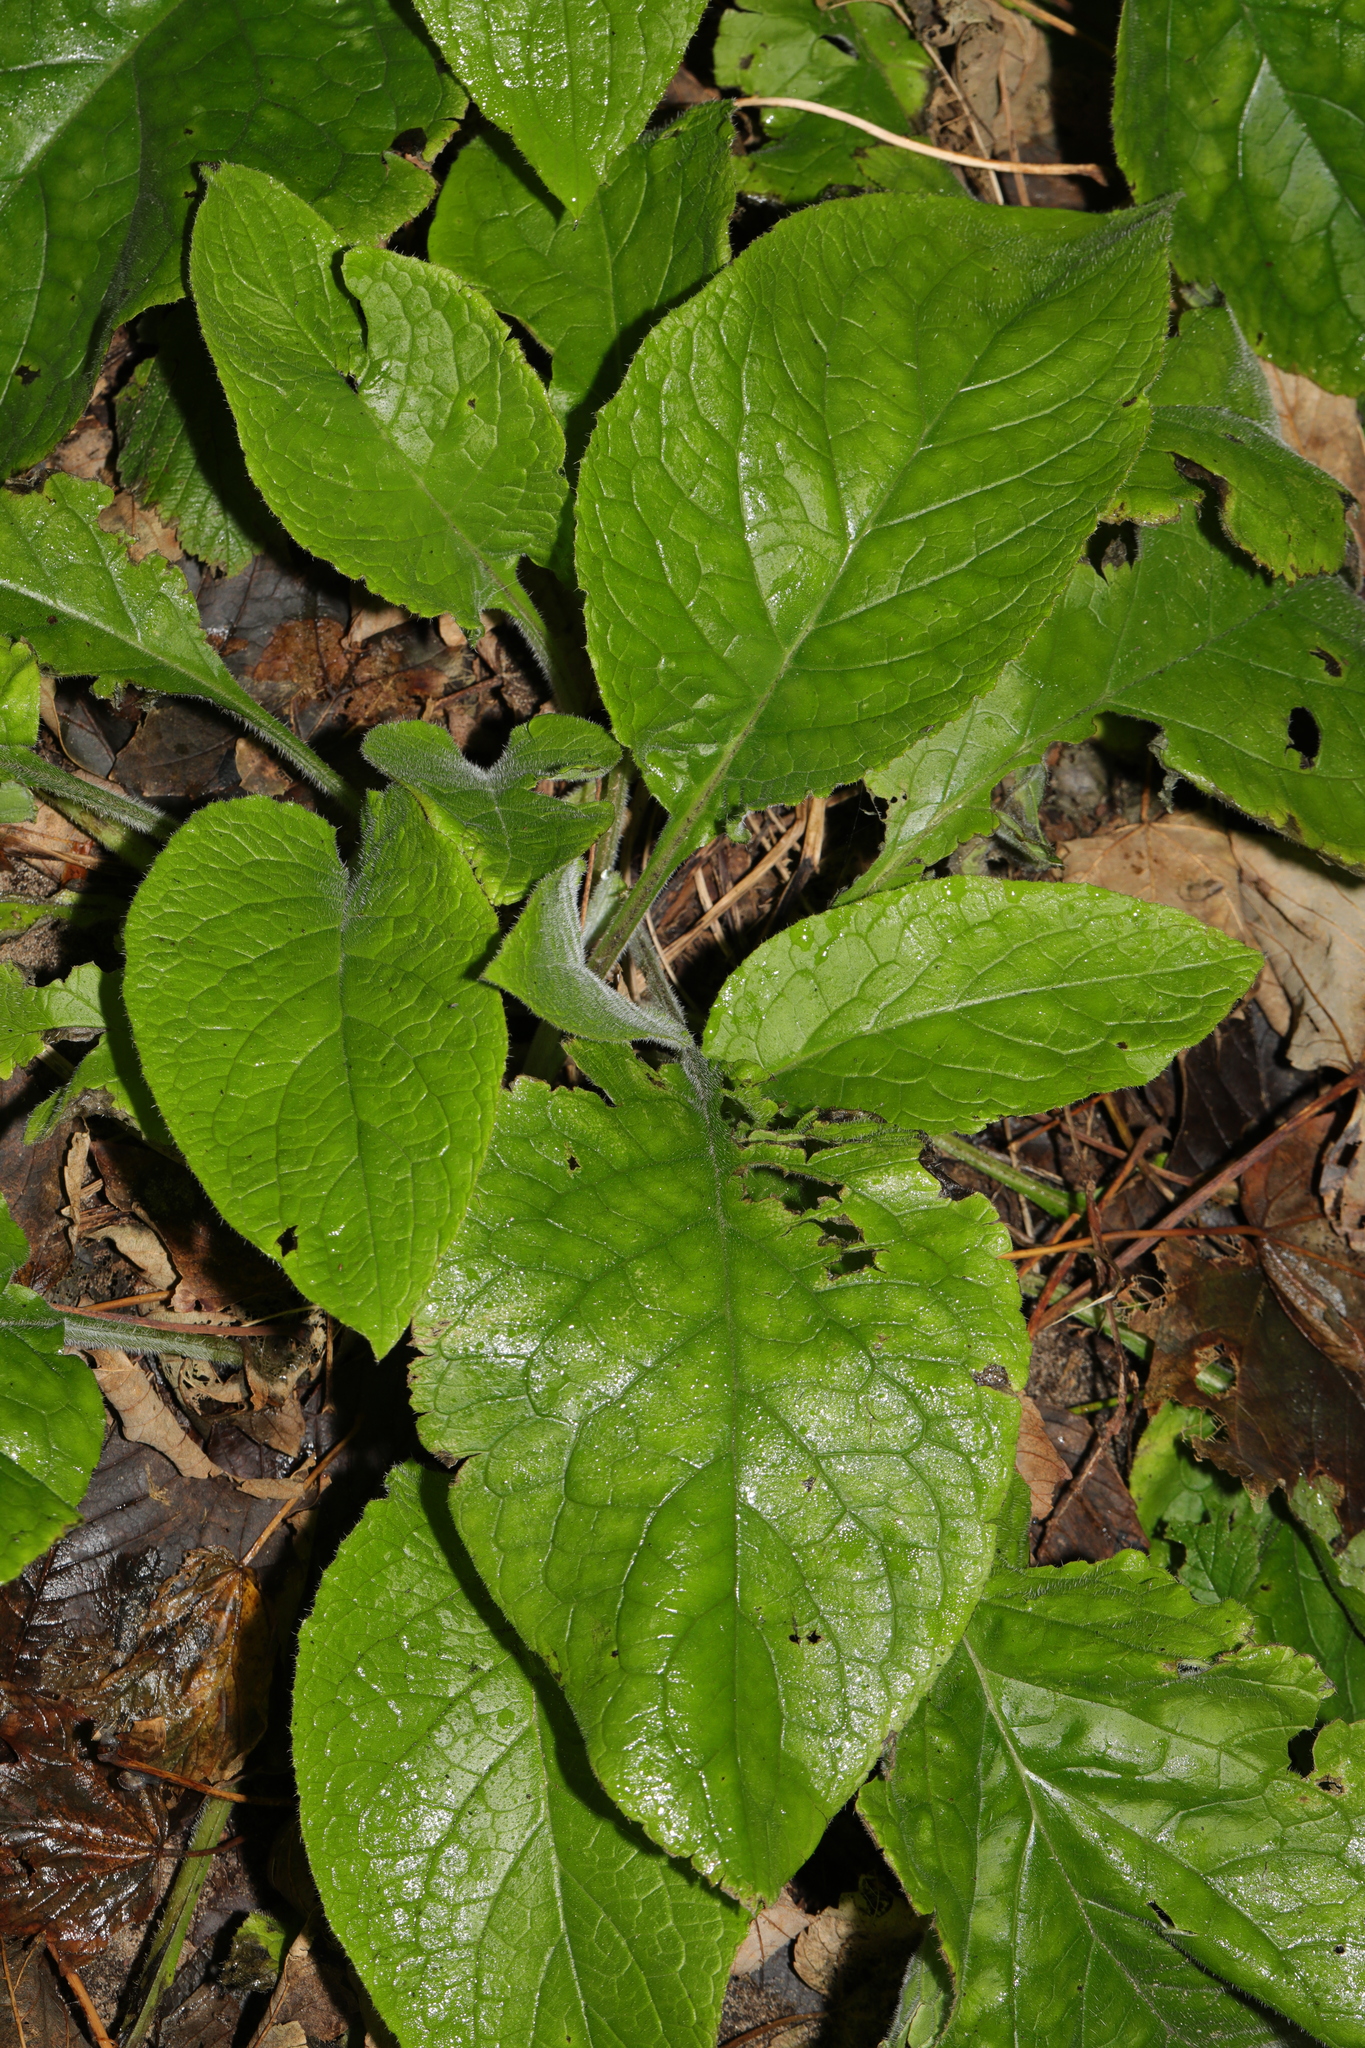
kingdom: Plantae
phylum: Tracheophyta
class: Magnoliopsida
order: Boraginales
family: Boraginaceae
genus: Pentaglottis
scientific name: Pentaglottis sempervirens
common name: Green alkanet
